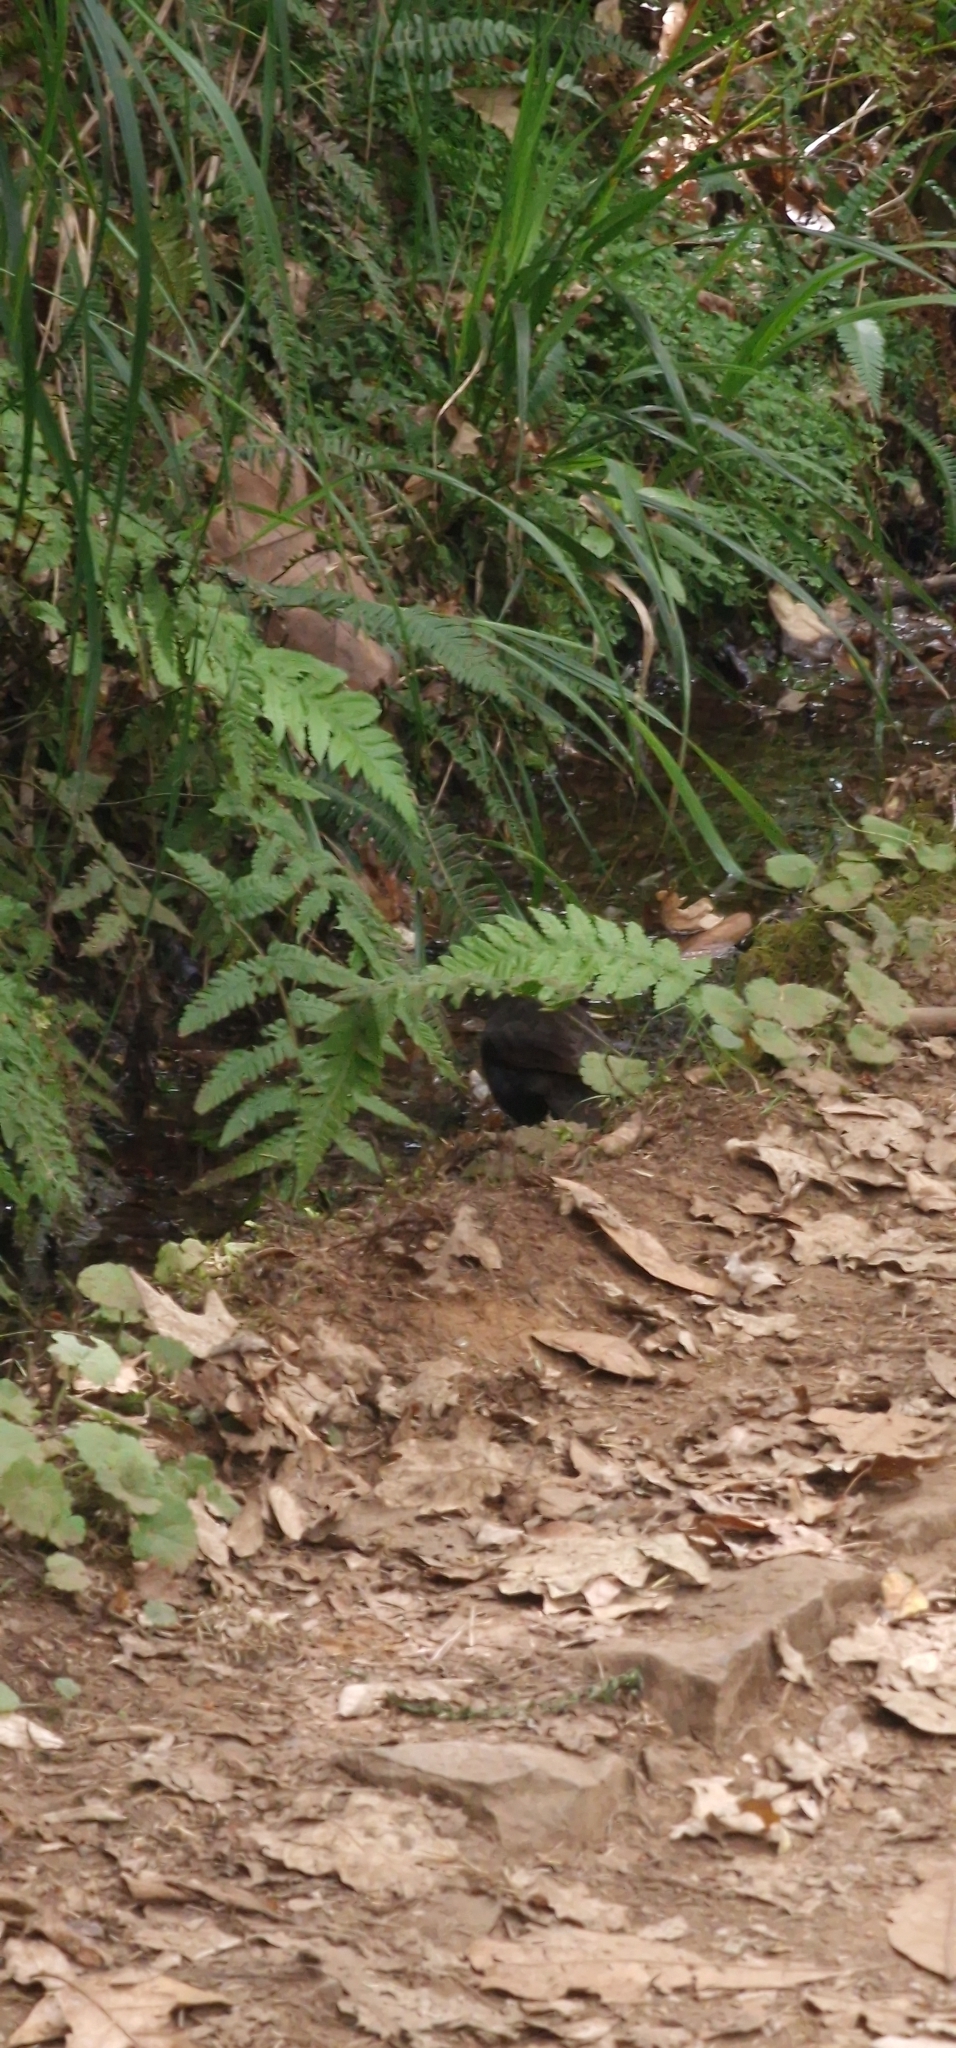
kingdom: Animalia
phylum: Chordata
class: Aves
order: Passeriformes
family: Turdidae
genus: Turdus
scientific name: Turdus merula
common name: Common blackbird
